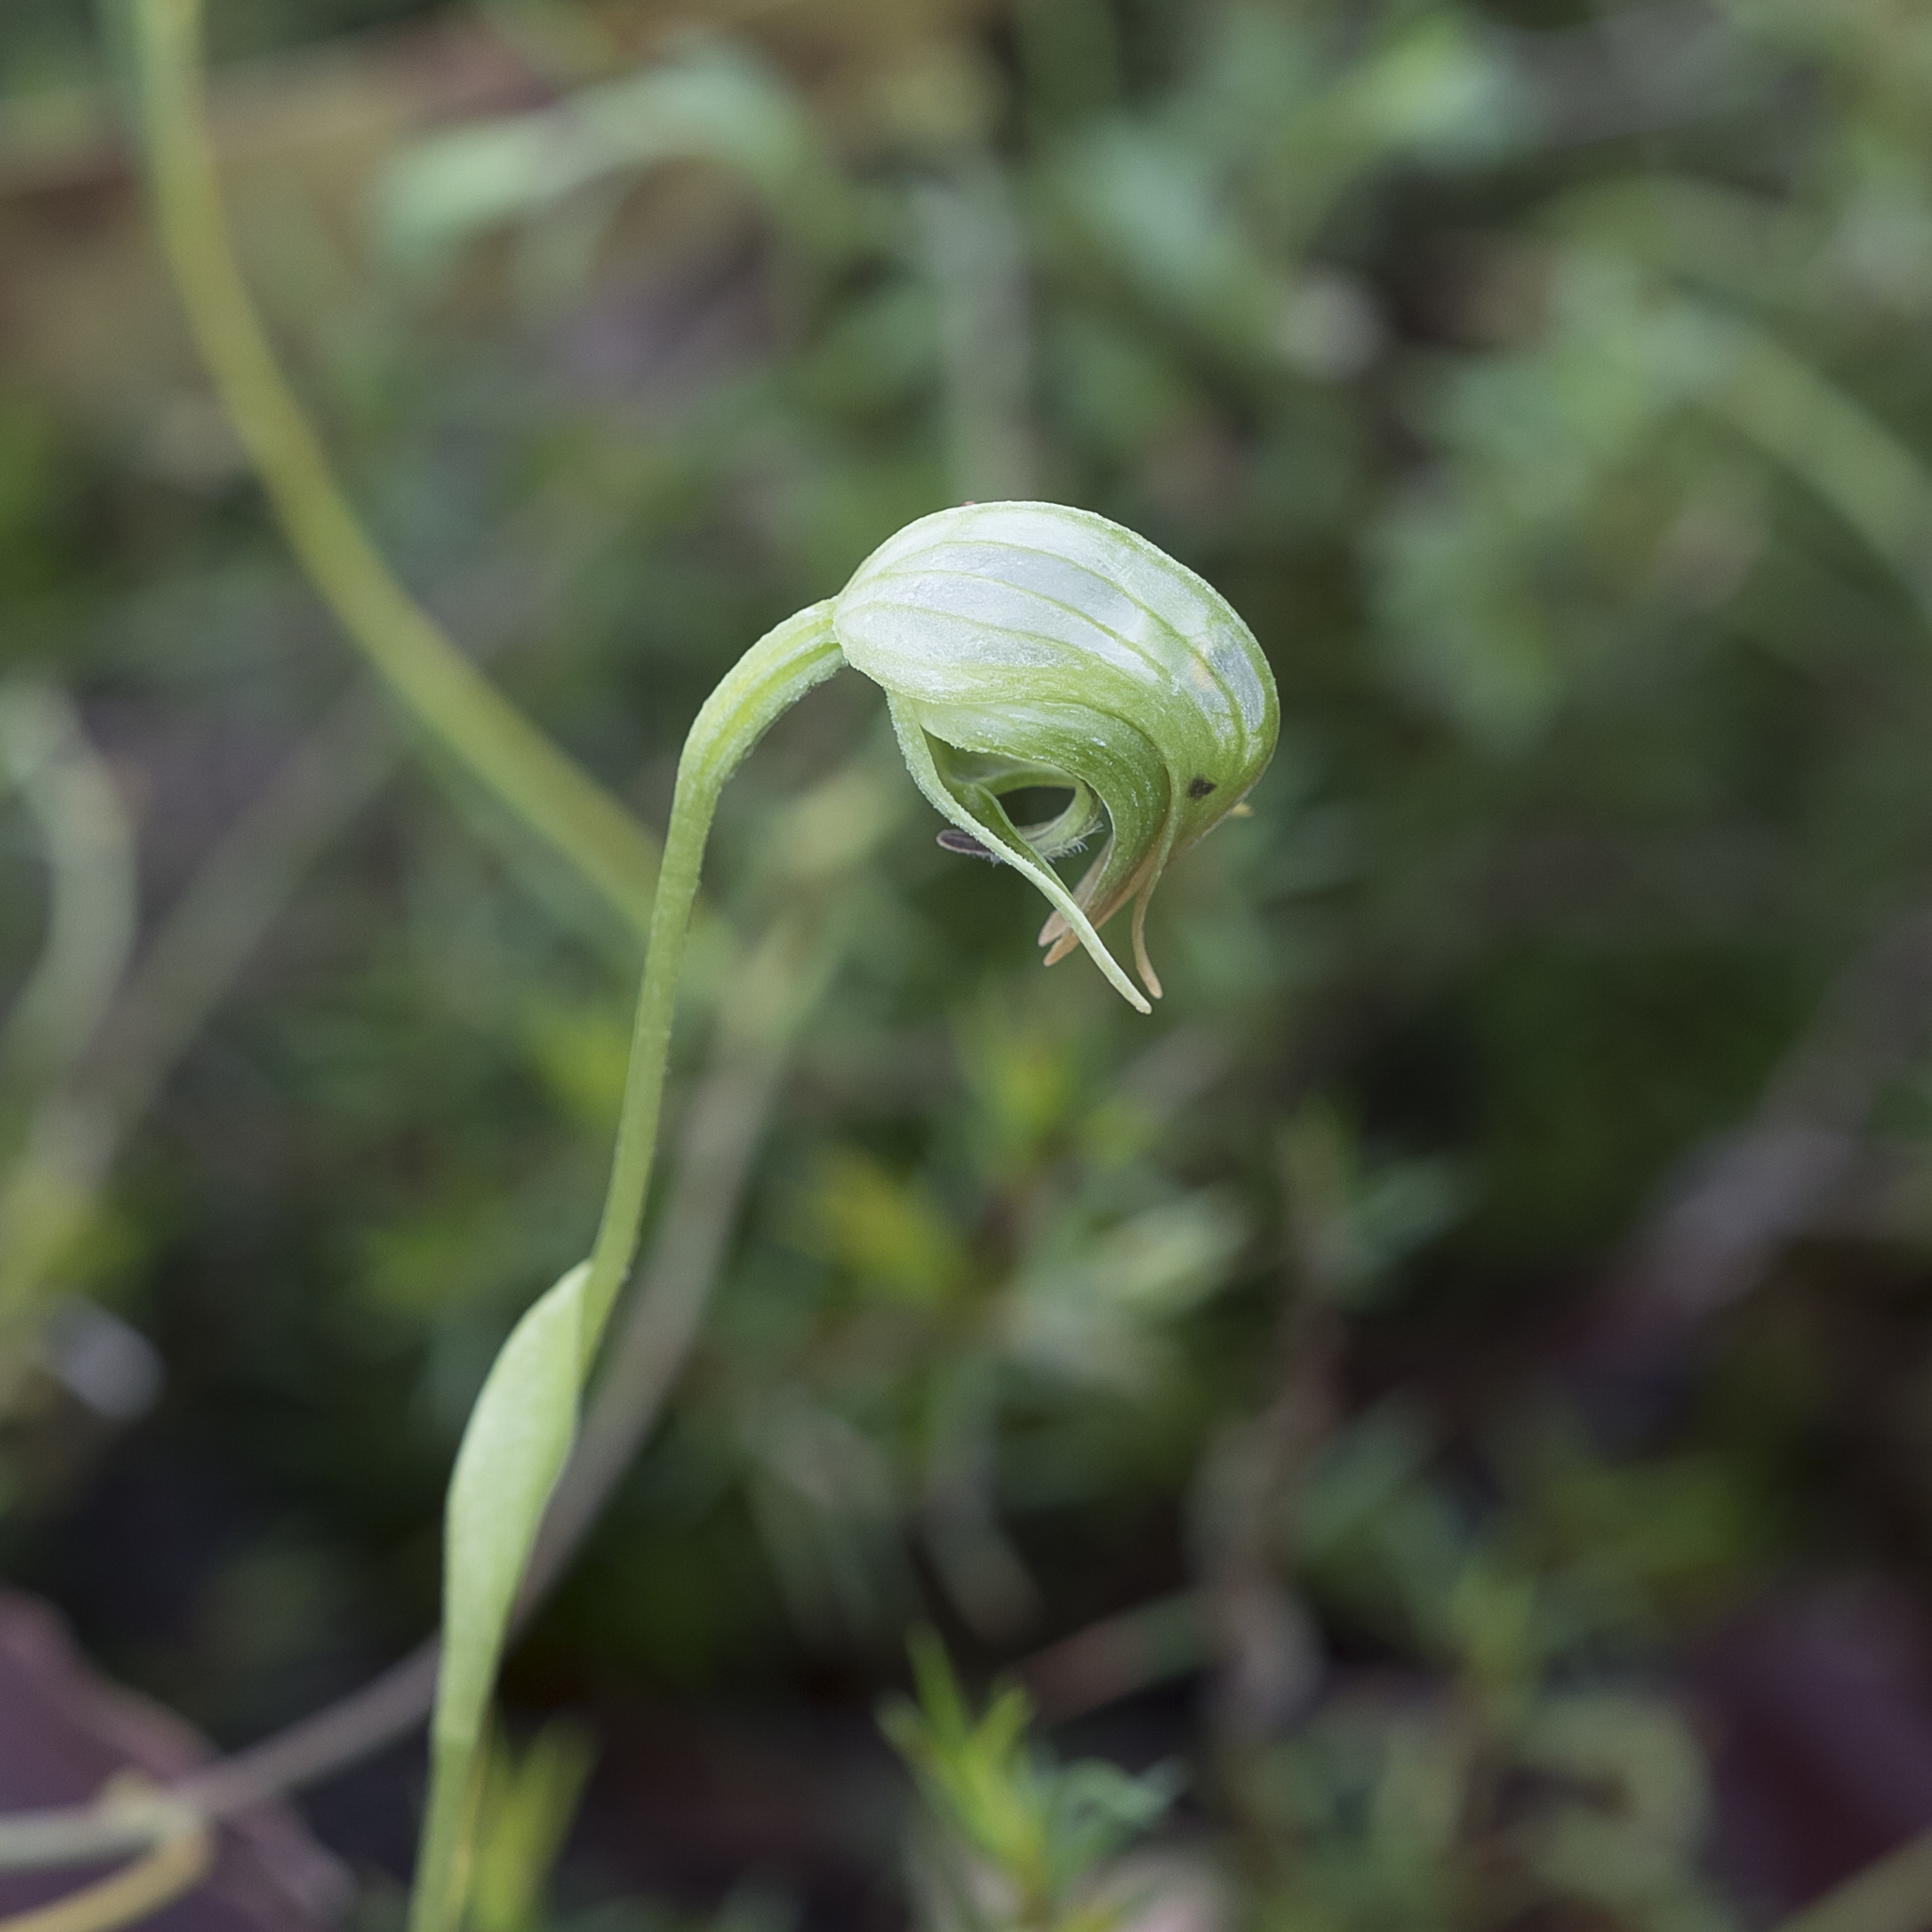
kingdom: Plantae
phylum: Tracheophyta
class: Liliopsida
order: Asparagales
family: Orchidaceae
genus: Pterostylis
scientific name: Pterostylis nutans
